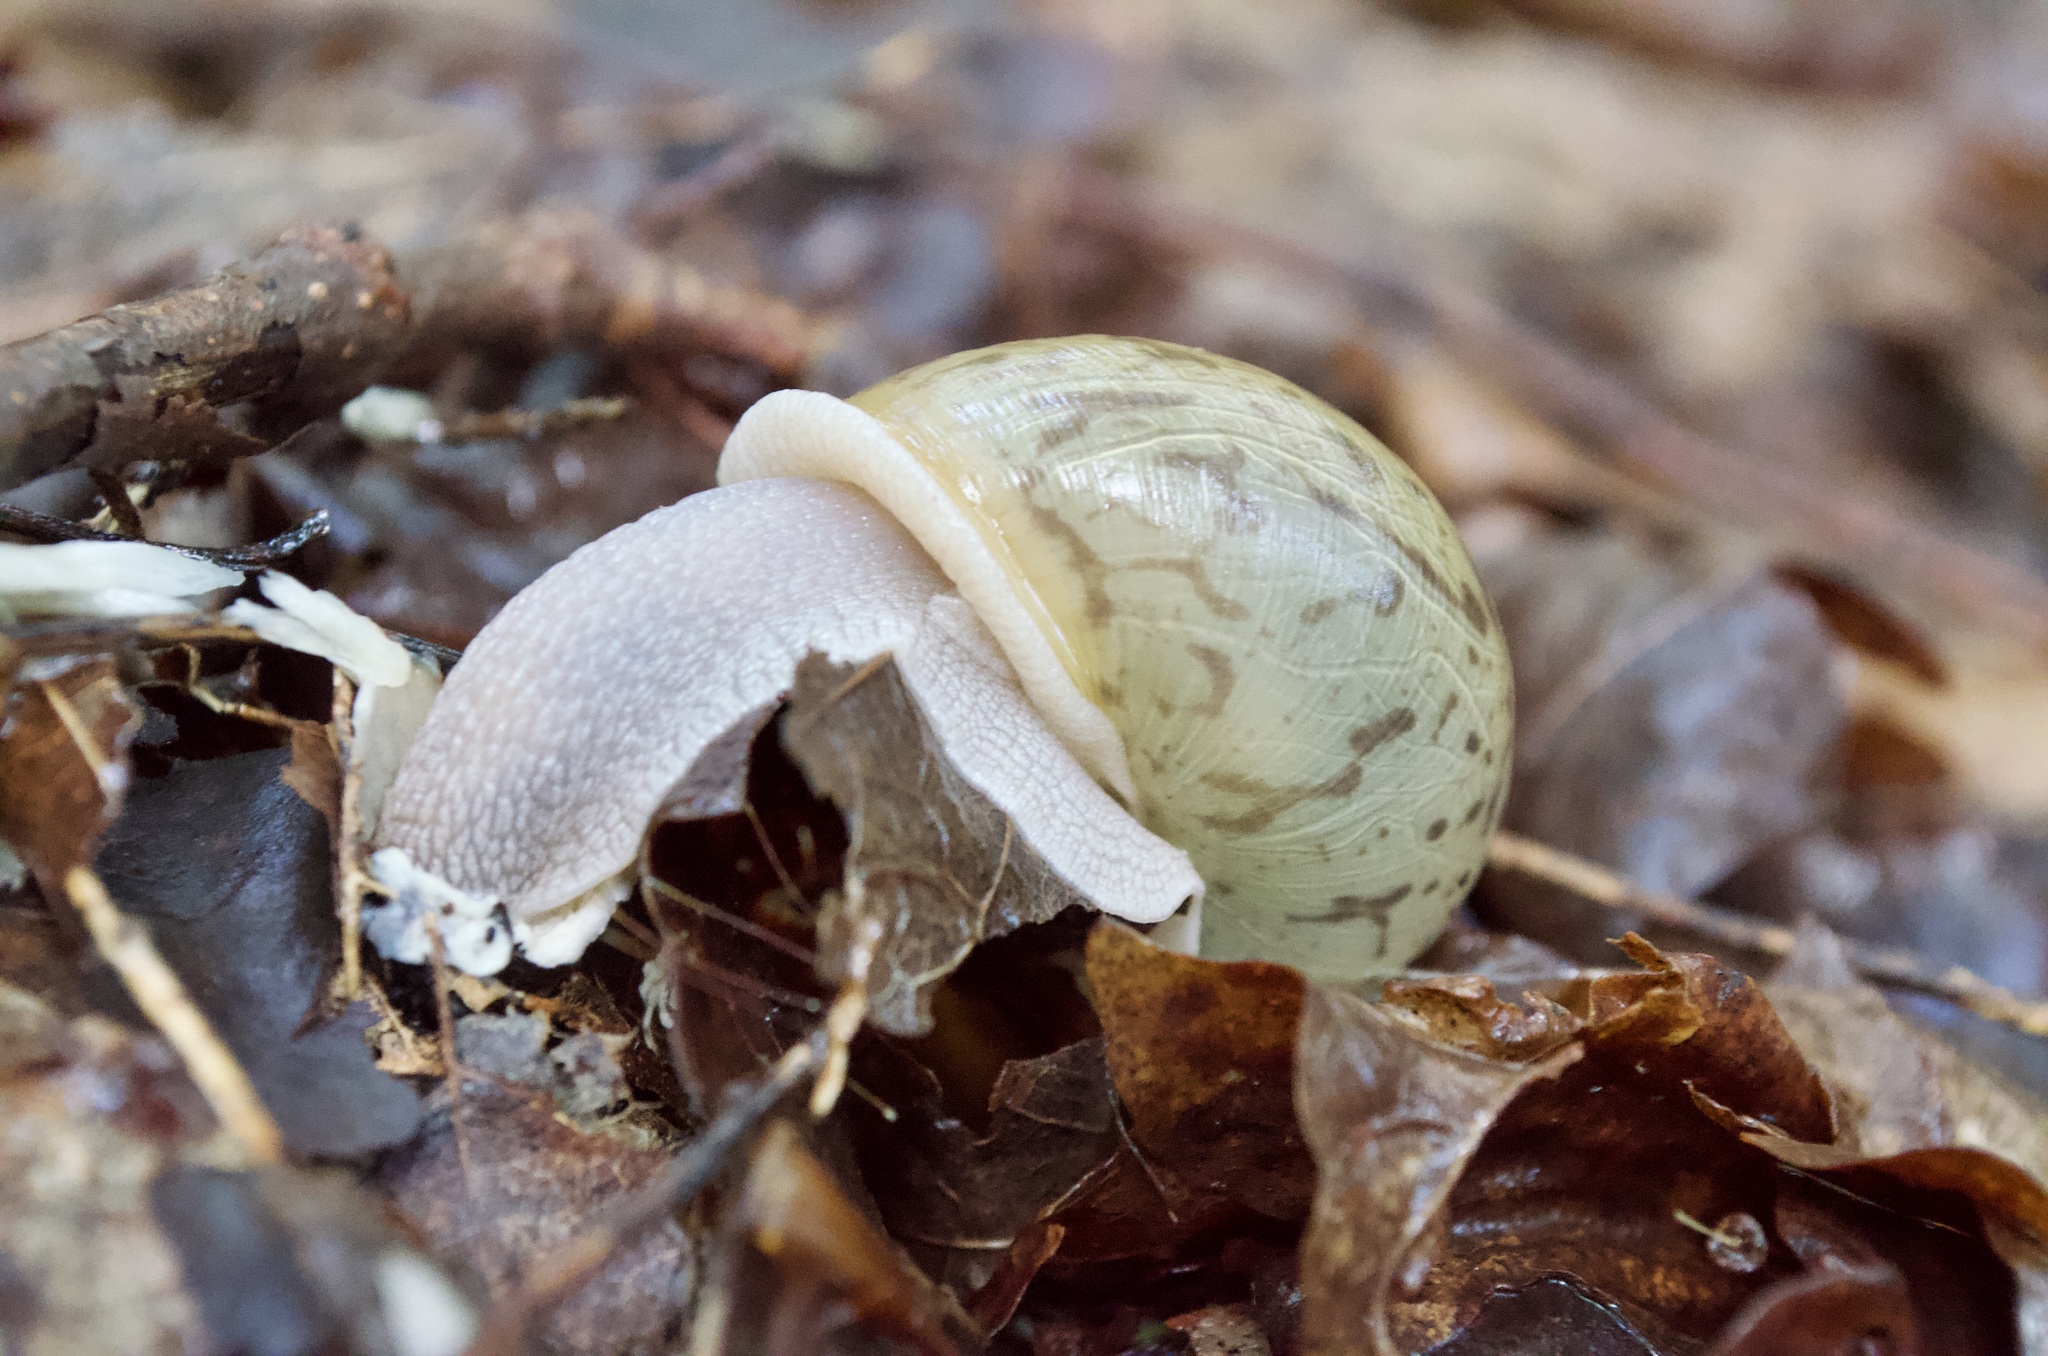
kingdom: Animalia
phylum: Mollusca
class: Gastropoda
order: Stylommatophora
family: Polygyridae
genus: Neohelix
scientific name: Neohelix albolabris
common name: Eastern whitelip
